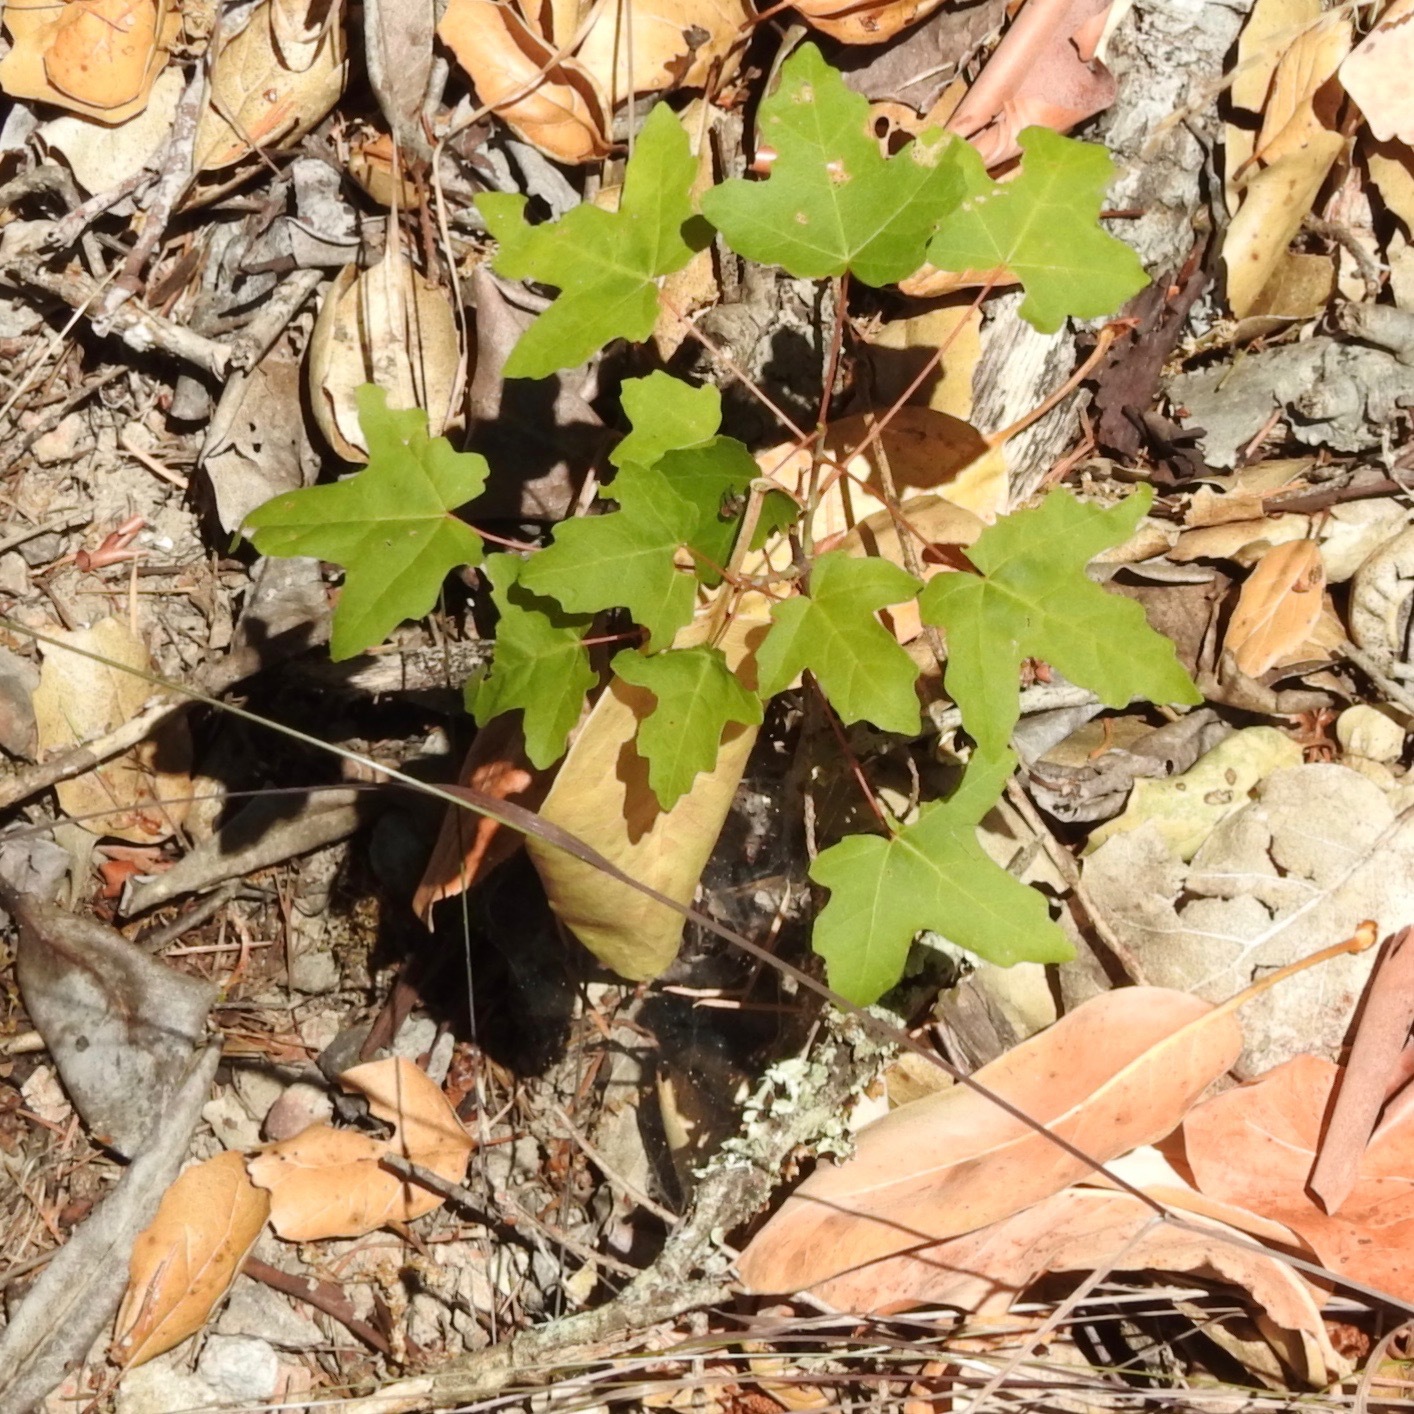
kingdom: Plantae
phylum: Tracheophyta
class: Magnoliopsida
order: Sapindales
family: Sapindaceae
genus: Acer
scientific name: Acer macrophyllum
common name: Oregon maple
